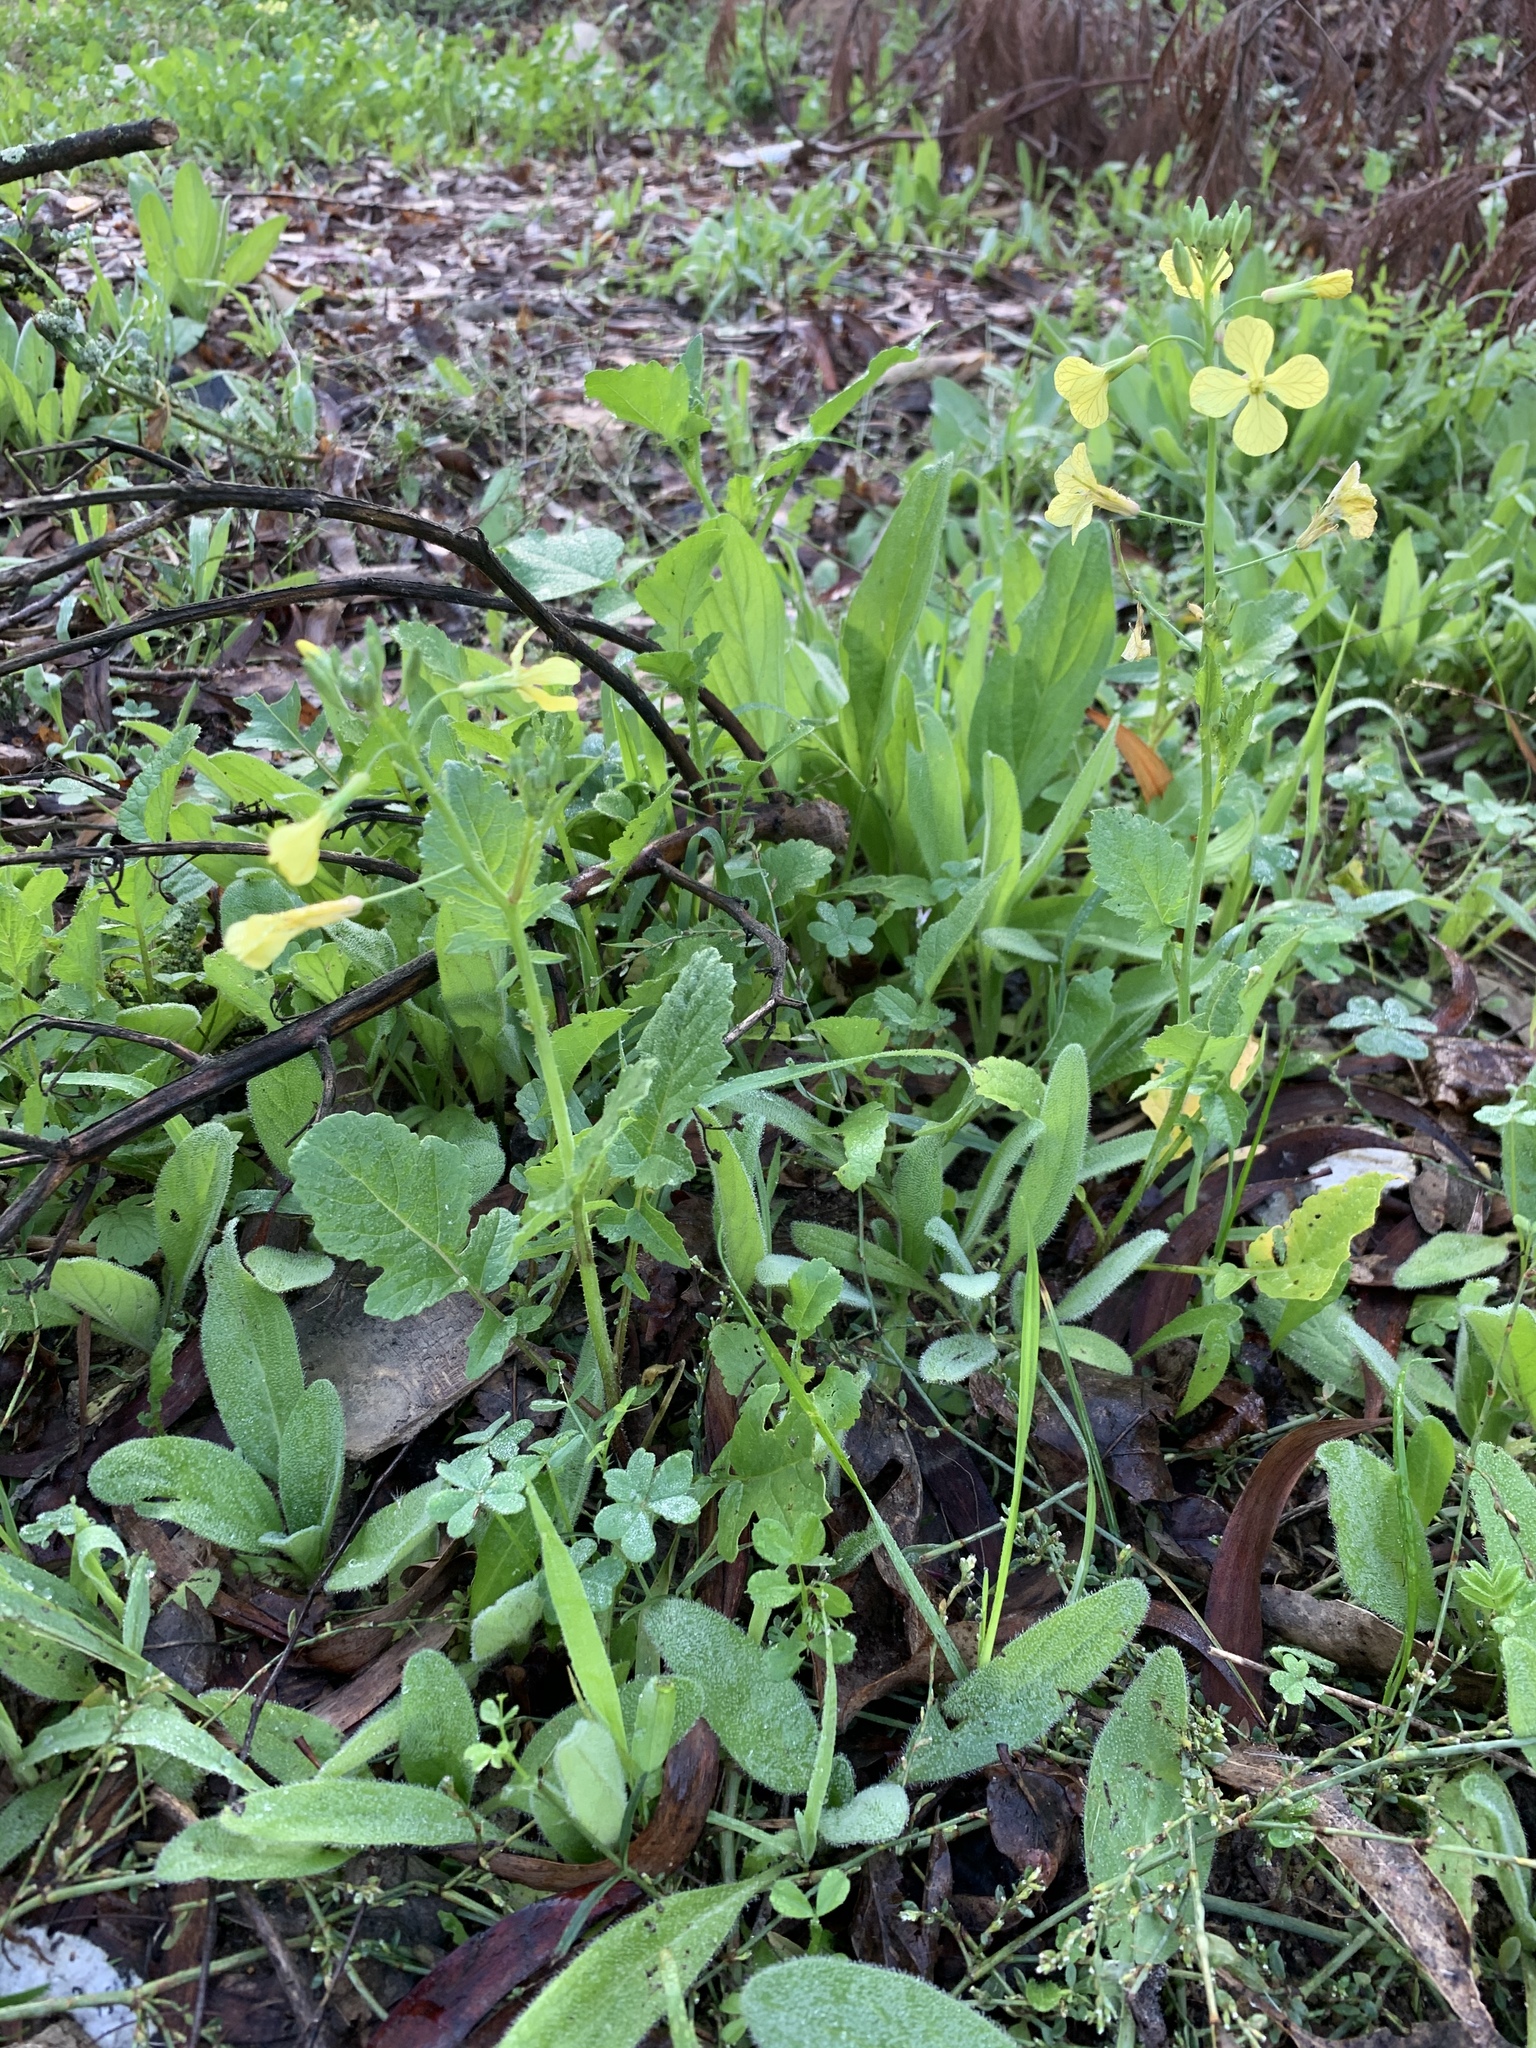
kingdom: Plantae
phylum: Tracheophyta
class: Magnoliopsida
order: Brassicales
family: Brassicaceae
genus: Raphanus
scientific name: Raphanus raphanistrum
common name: Wild radish
